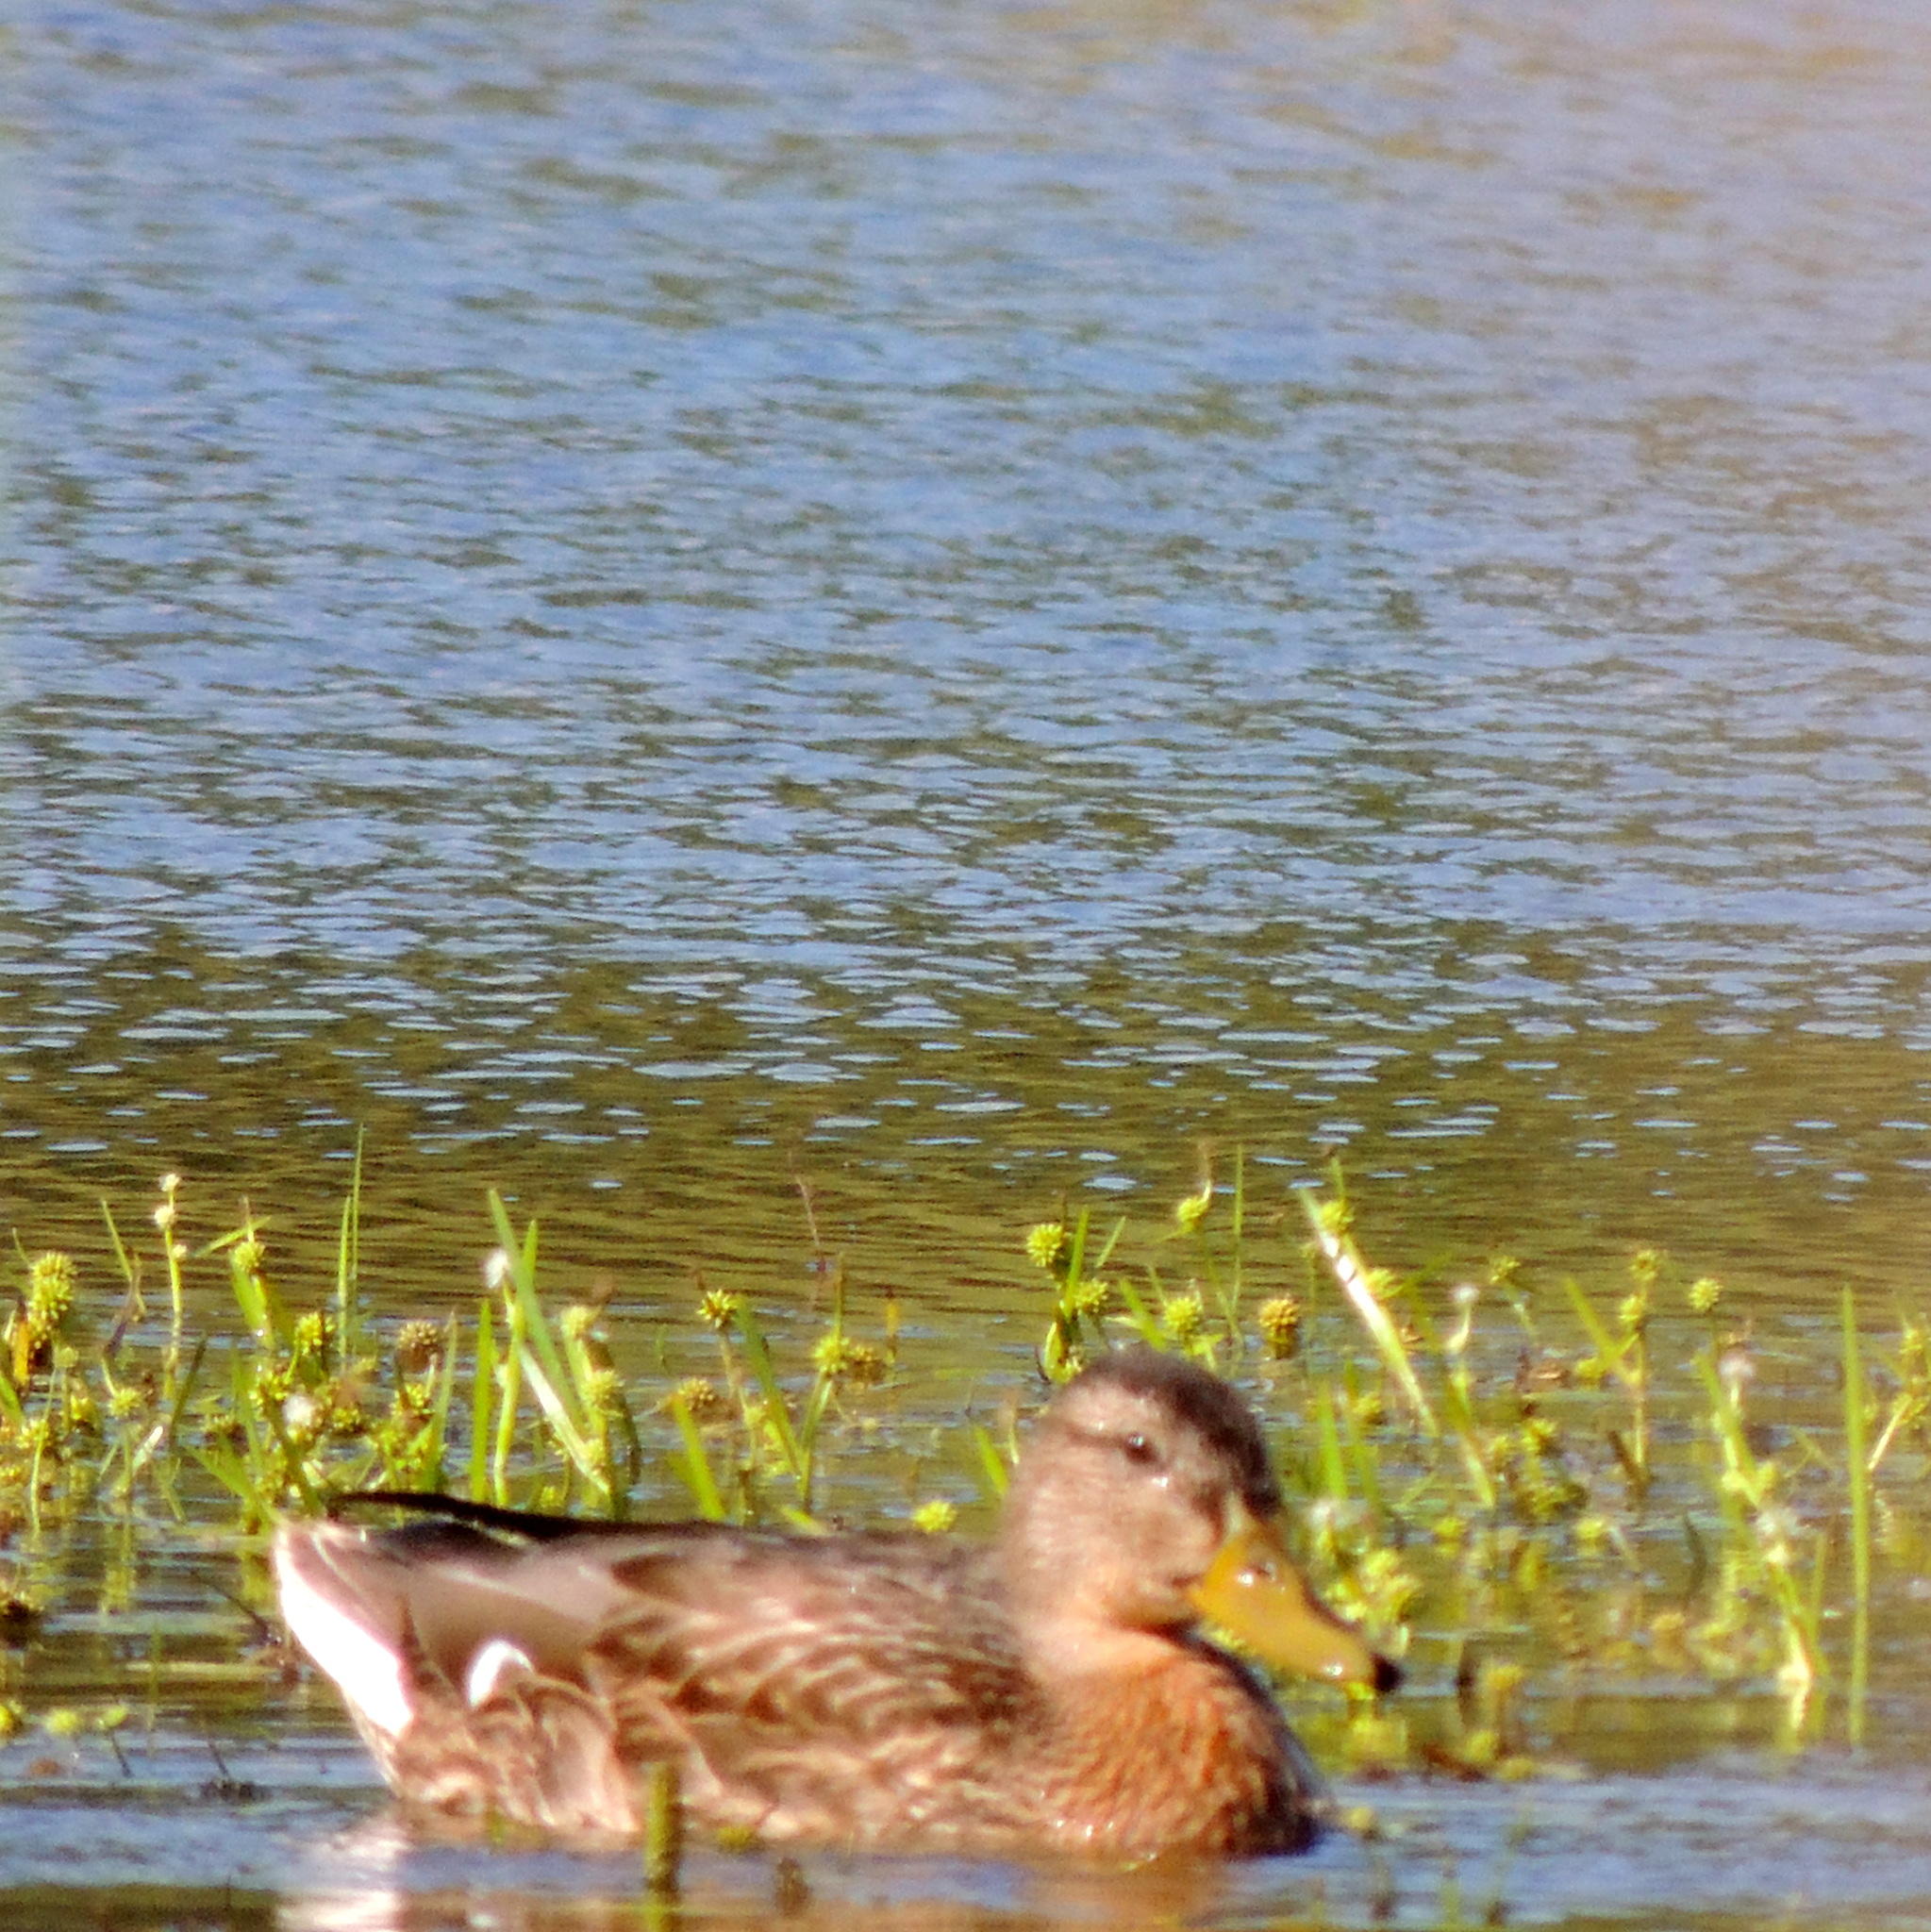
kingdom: Animalia
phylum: Chordata
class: Aves
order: Anseriformes
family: Anatidae
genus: Anas
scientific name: Anas platyrhynchos
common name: Mallard
